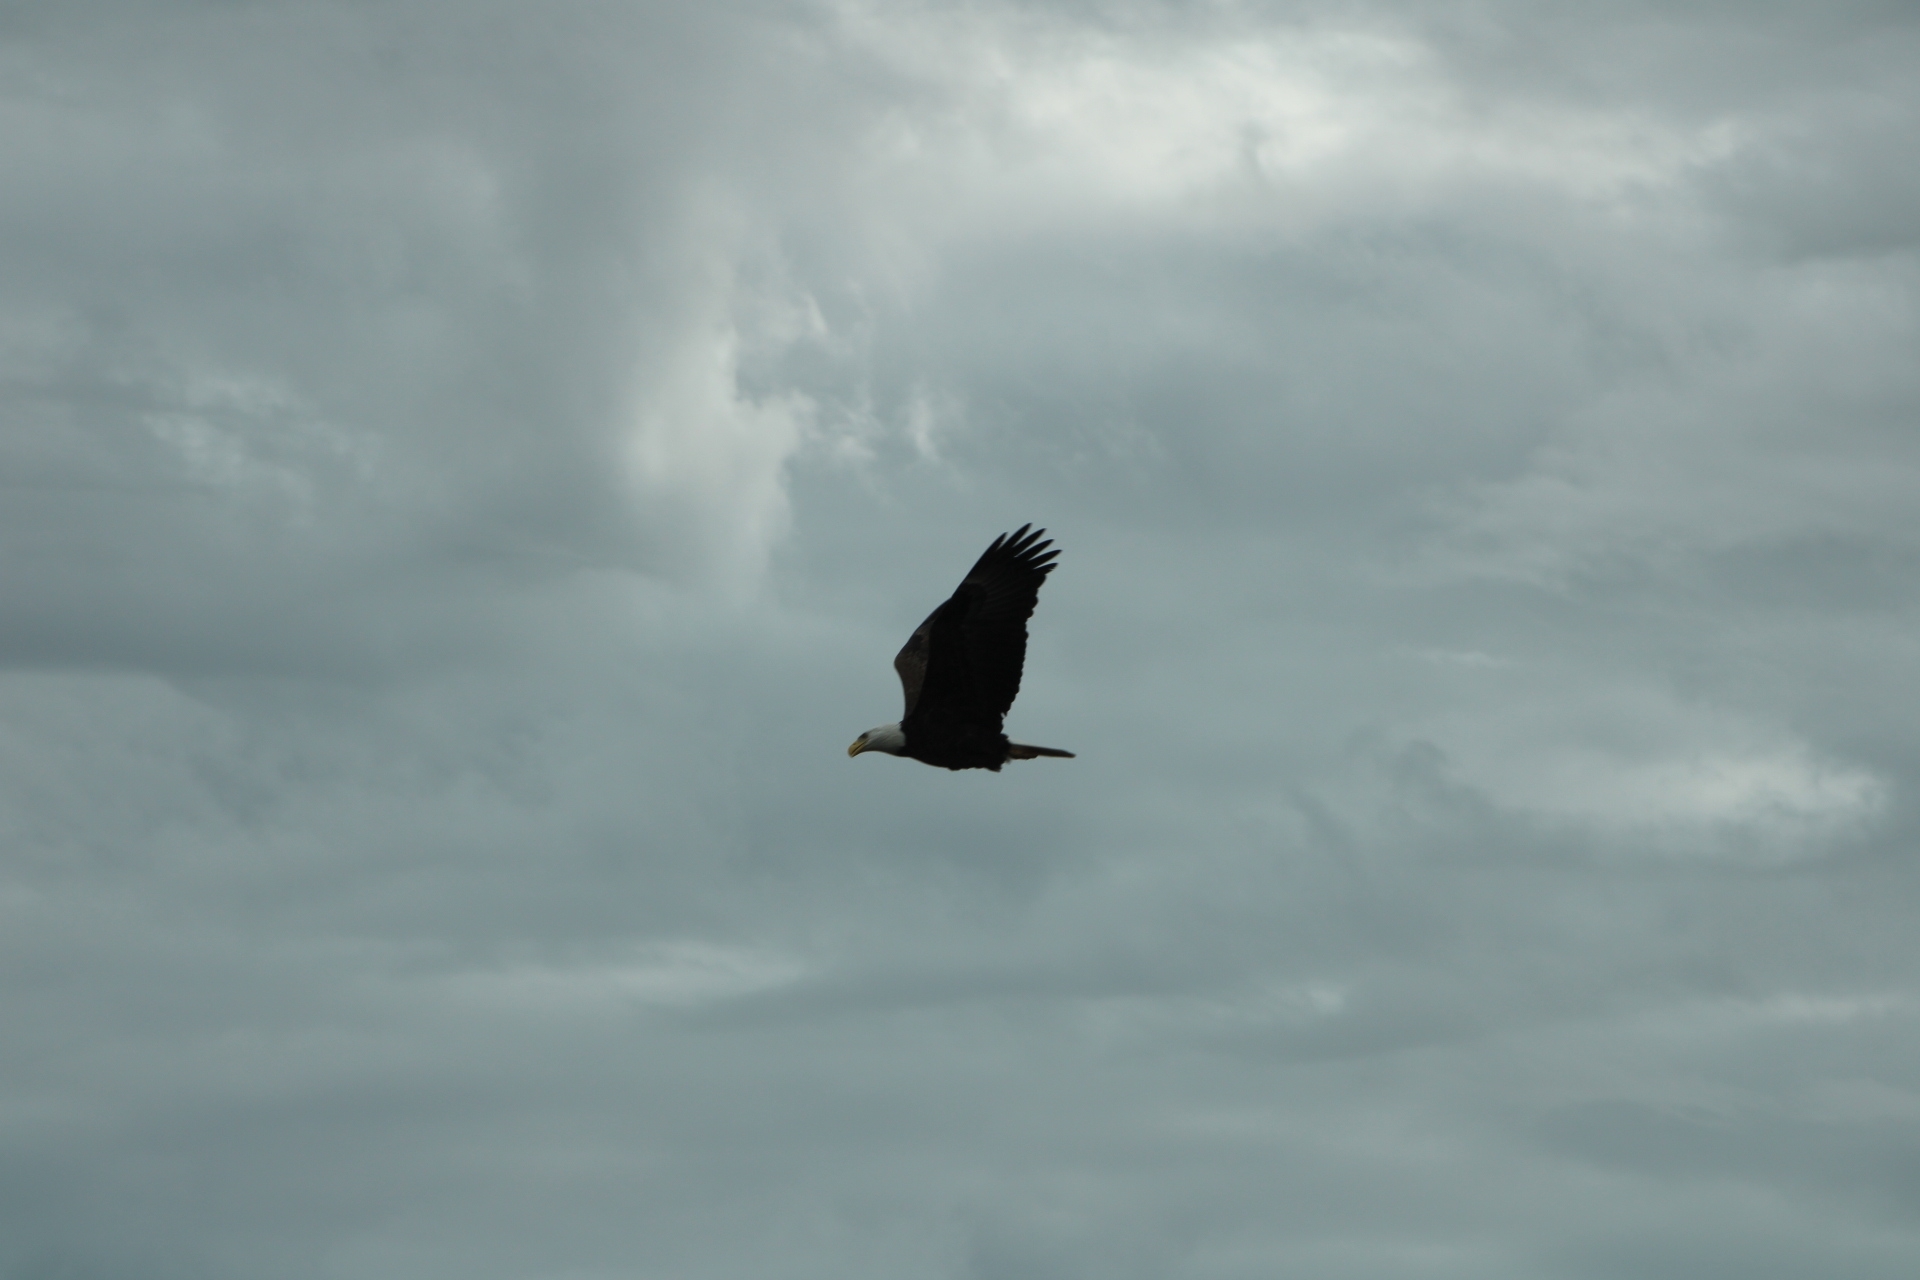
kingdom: Animalia
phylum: Chordata
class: Aves
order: Accipitriformes
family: Accipitridae
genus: Haliaeetus
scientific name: Haliaeetus leucocephalus
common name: Bald eagle
